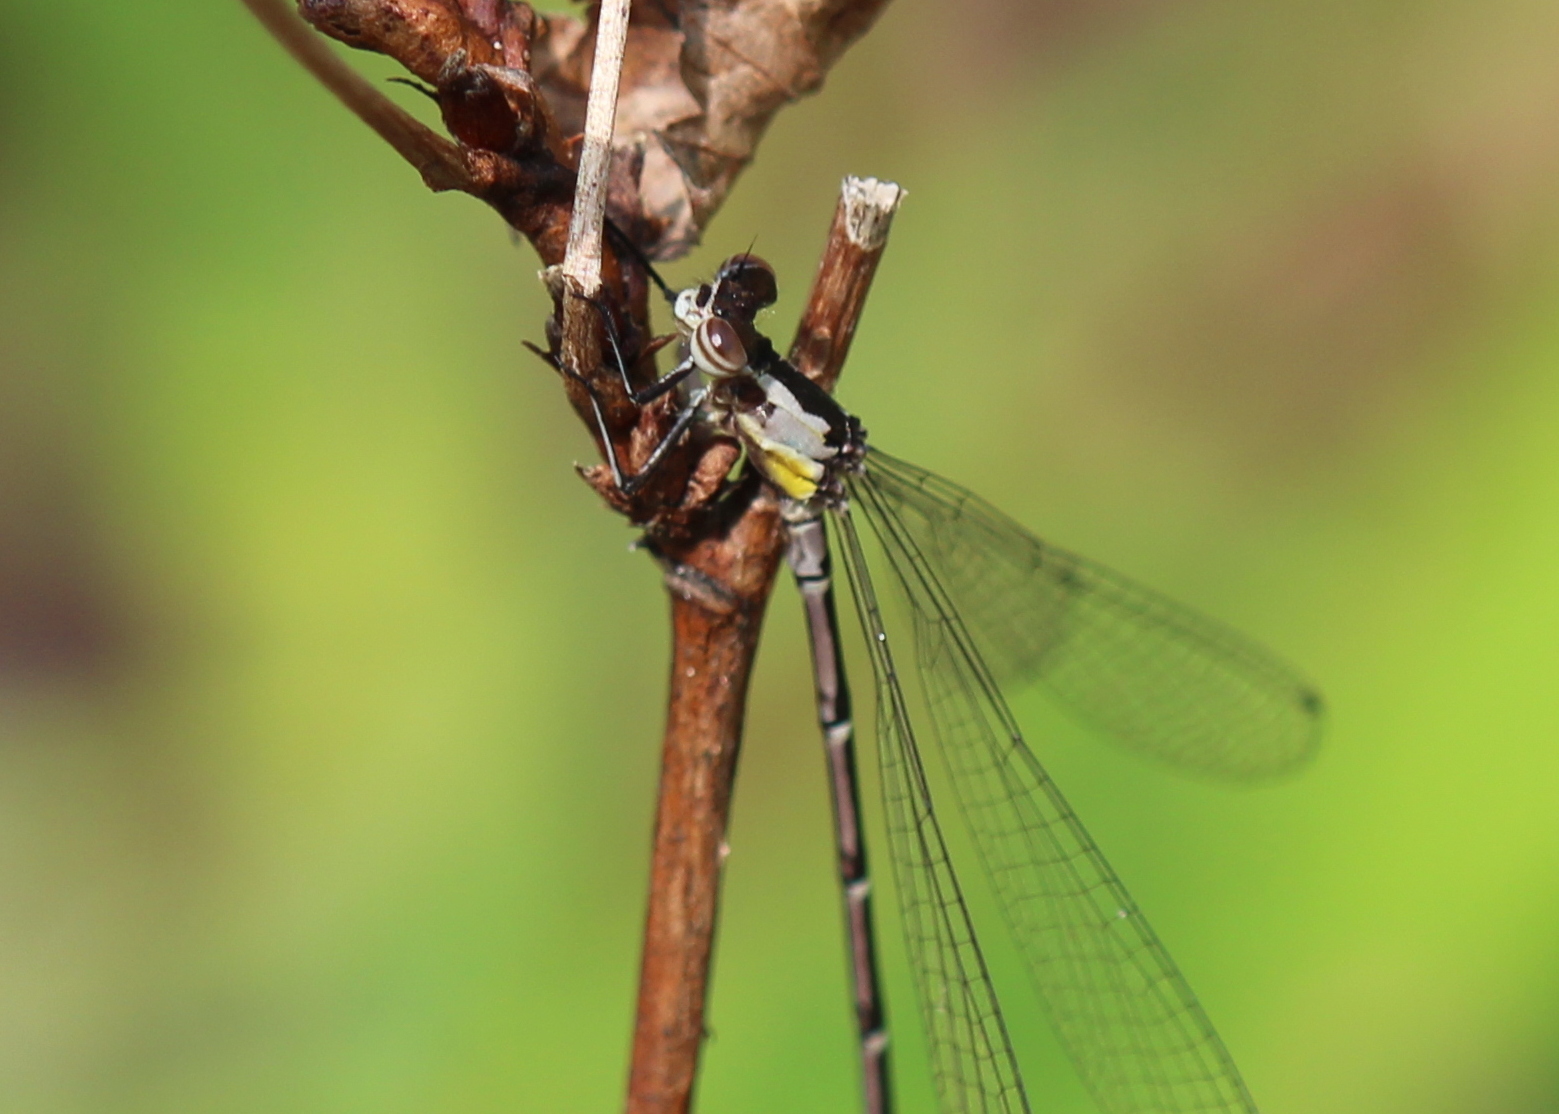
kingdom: Animalia
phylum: Arthropoda
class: Insecta
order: Odonata
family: Coenagrionidae
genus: Chromagrion
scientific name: Chromagrion conditum
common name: Aurora damsel
